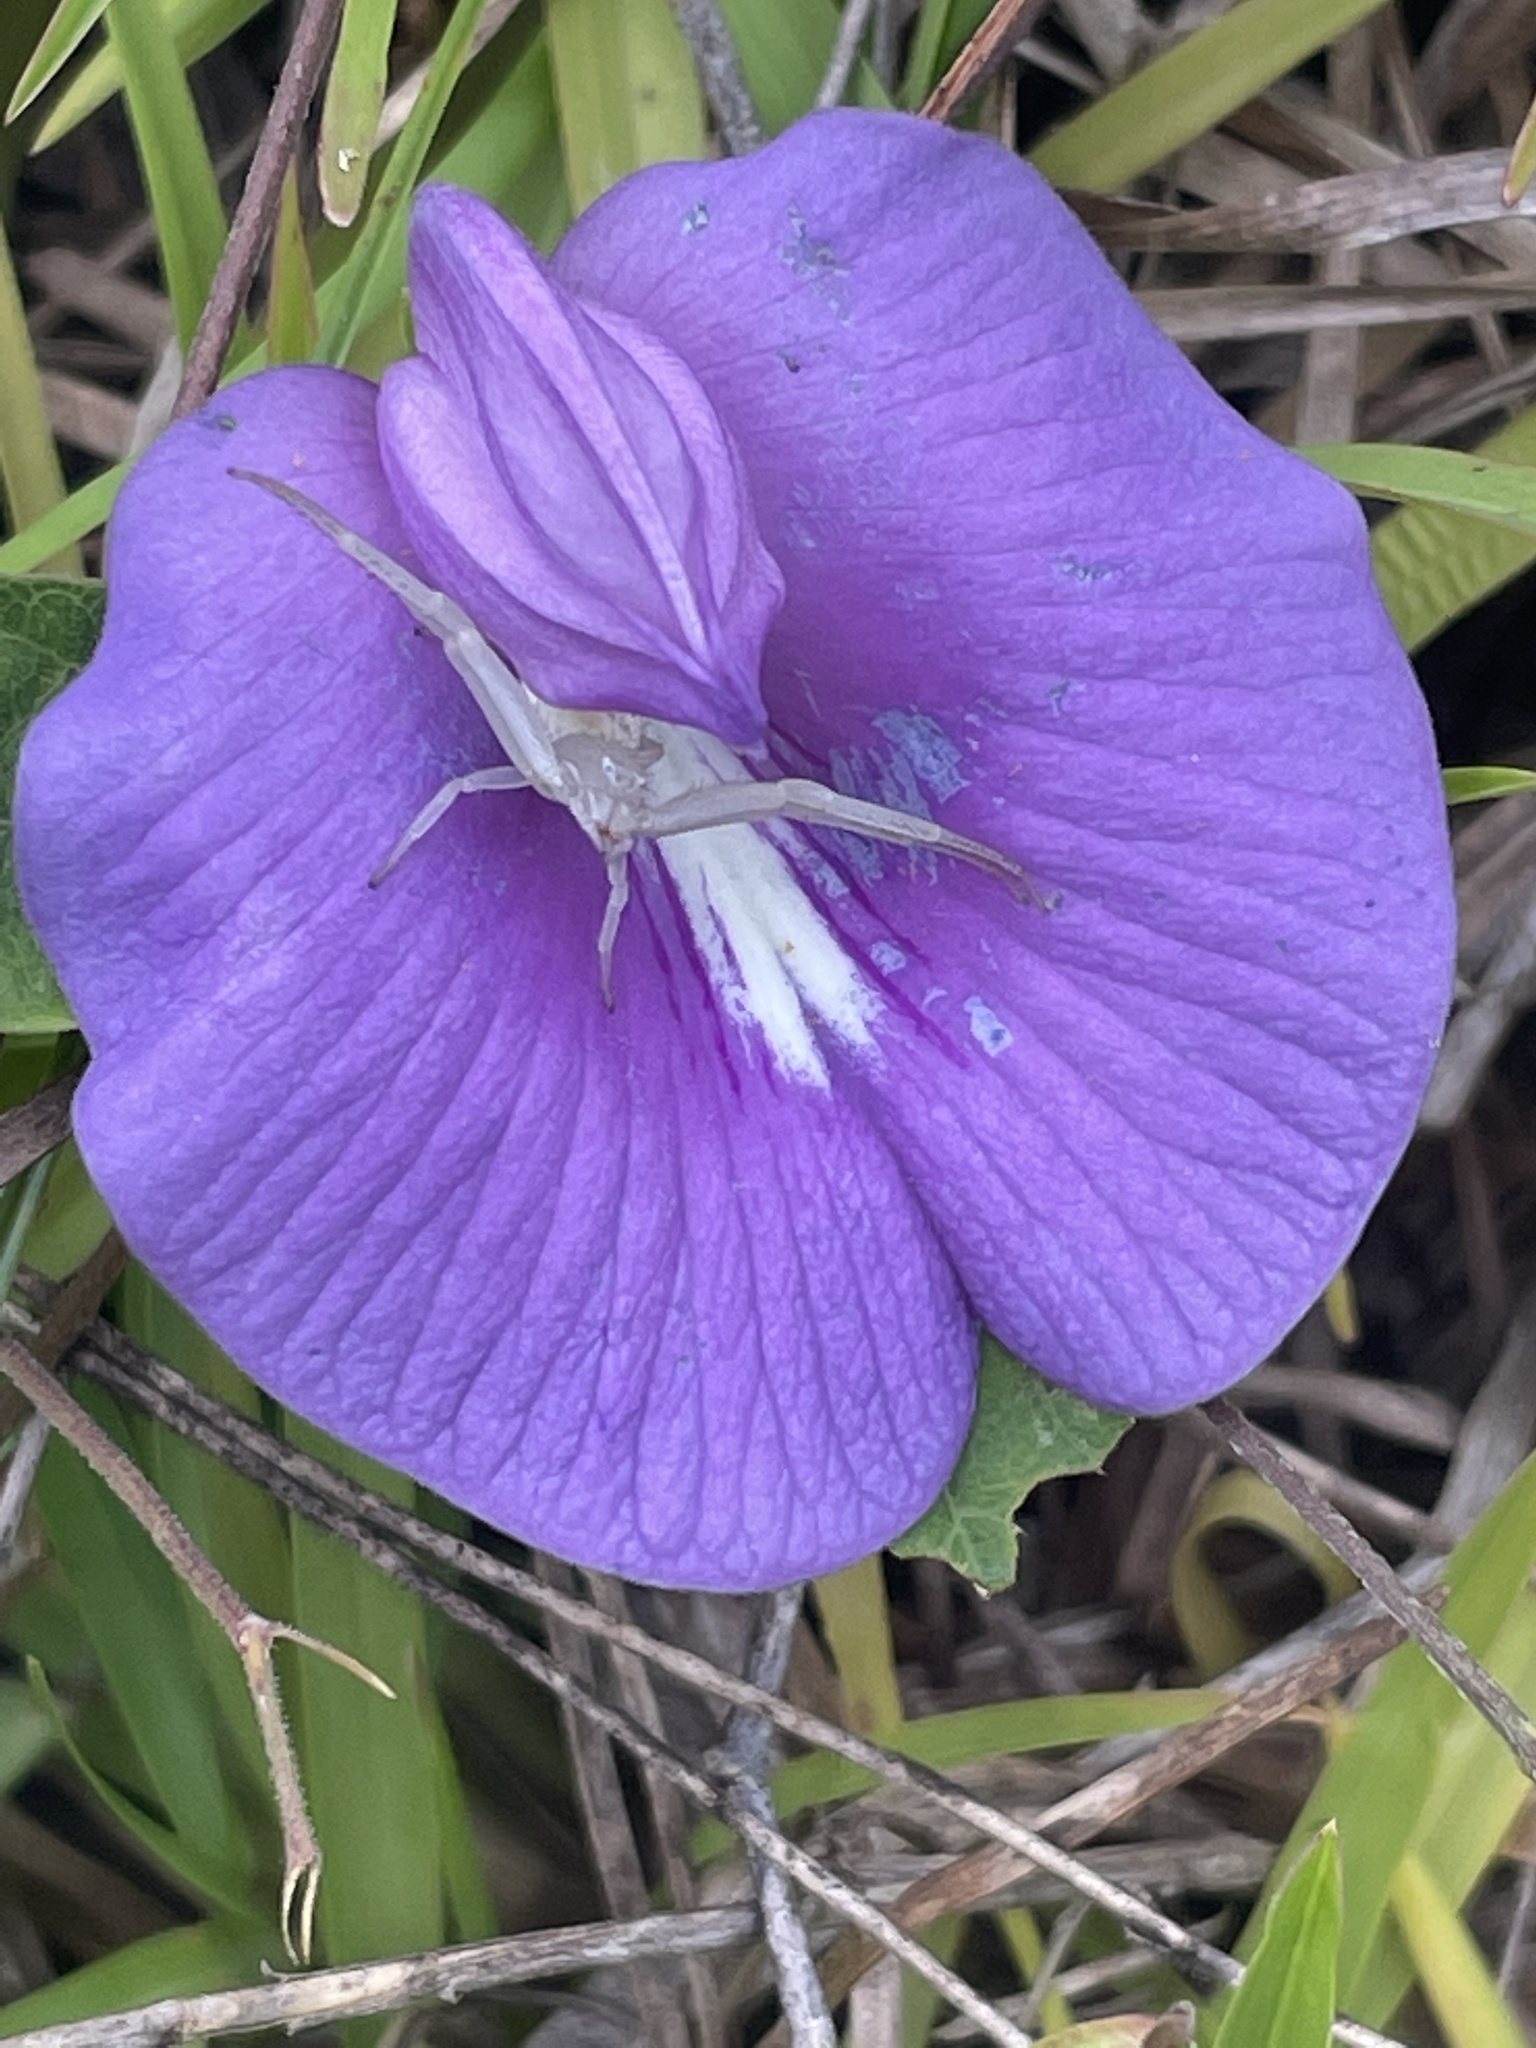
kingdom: Plantae
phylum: Tracheophyta
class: Magnoliopsida
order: Fabales
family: Fabaceae
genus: Centrosema
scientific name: Centrosema virginianum
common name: Butterfly-pea
